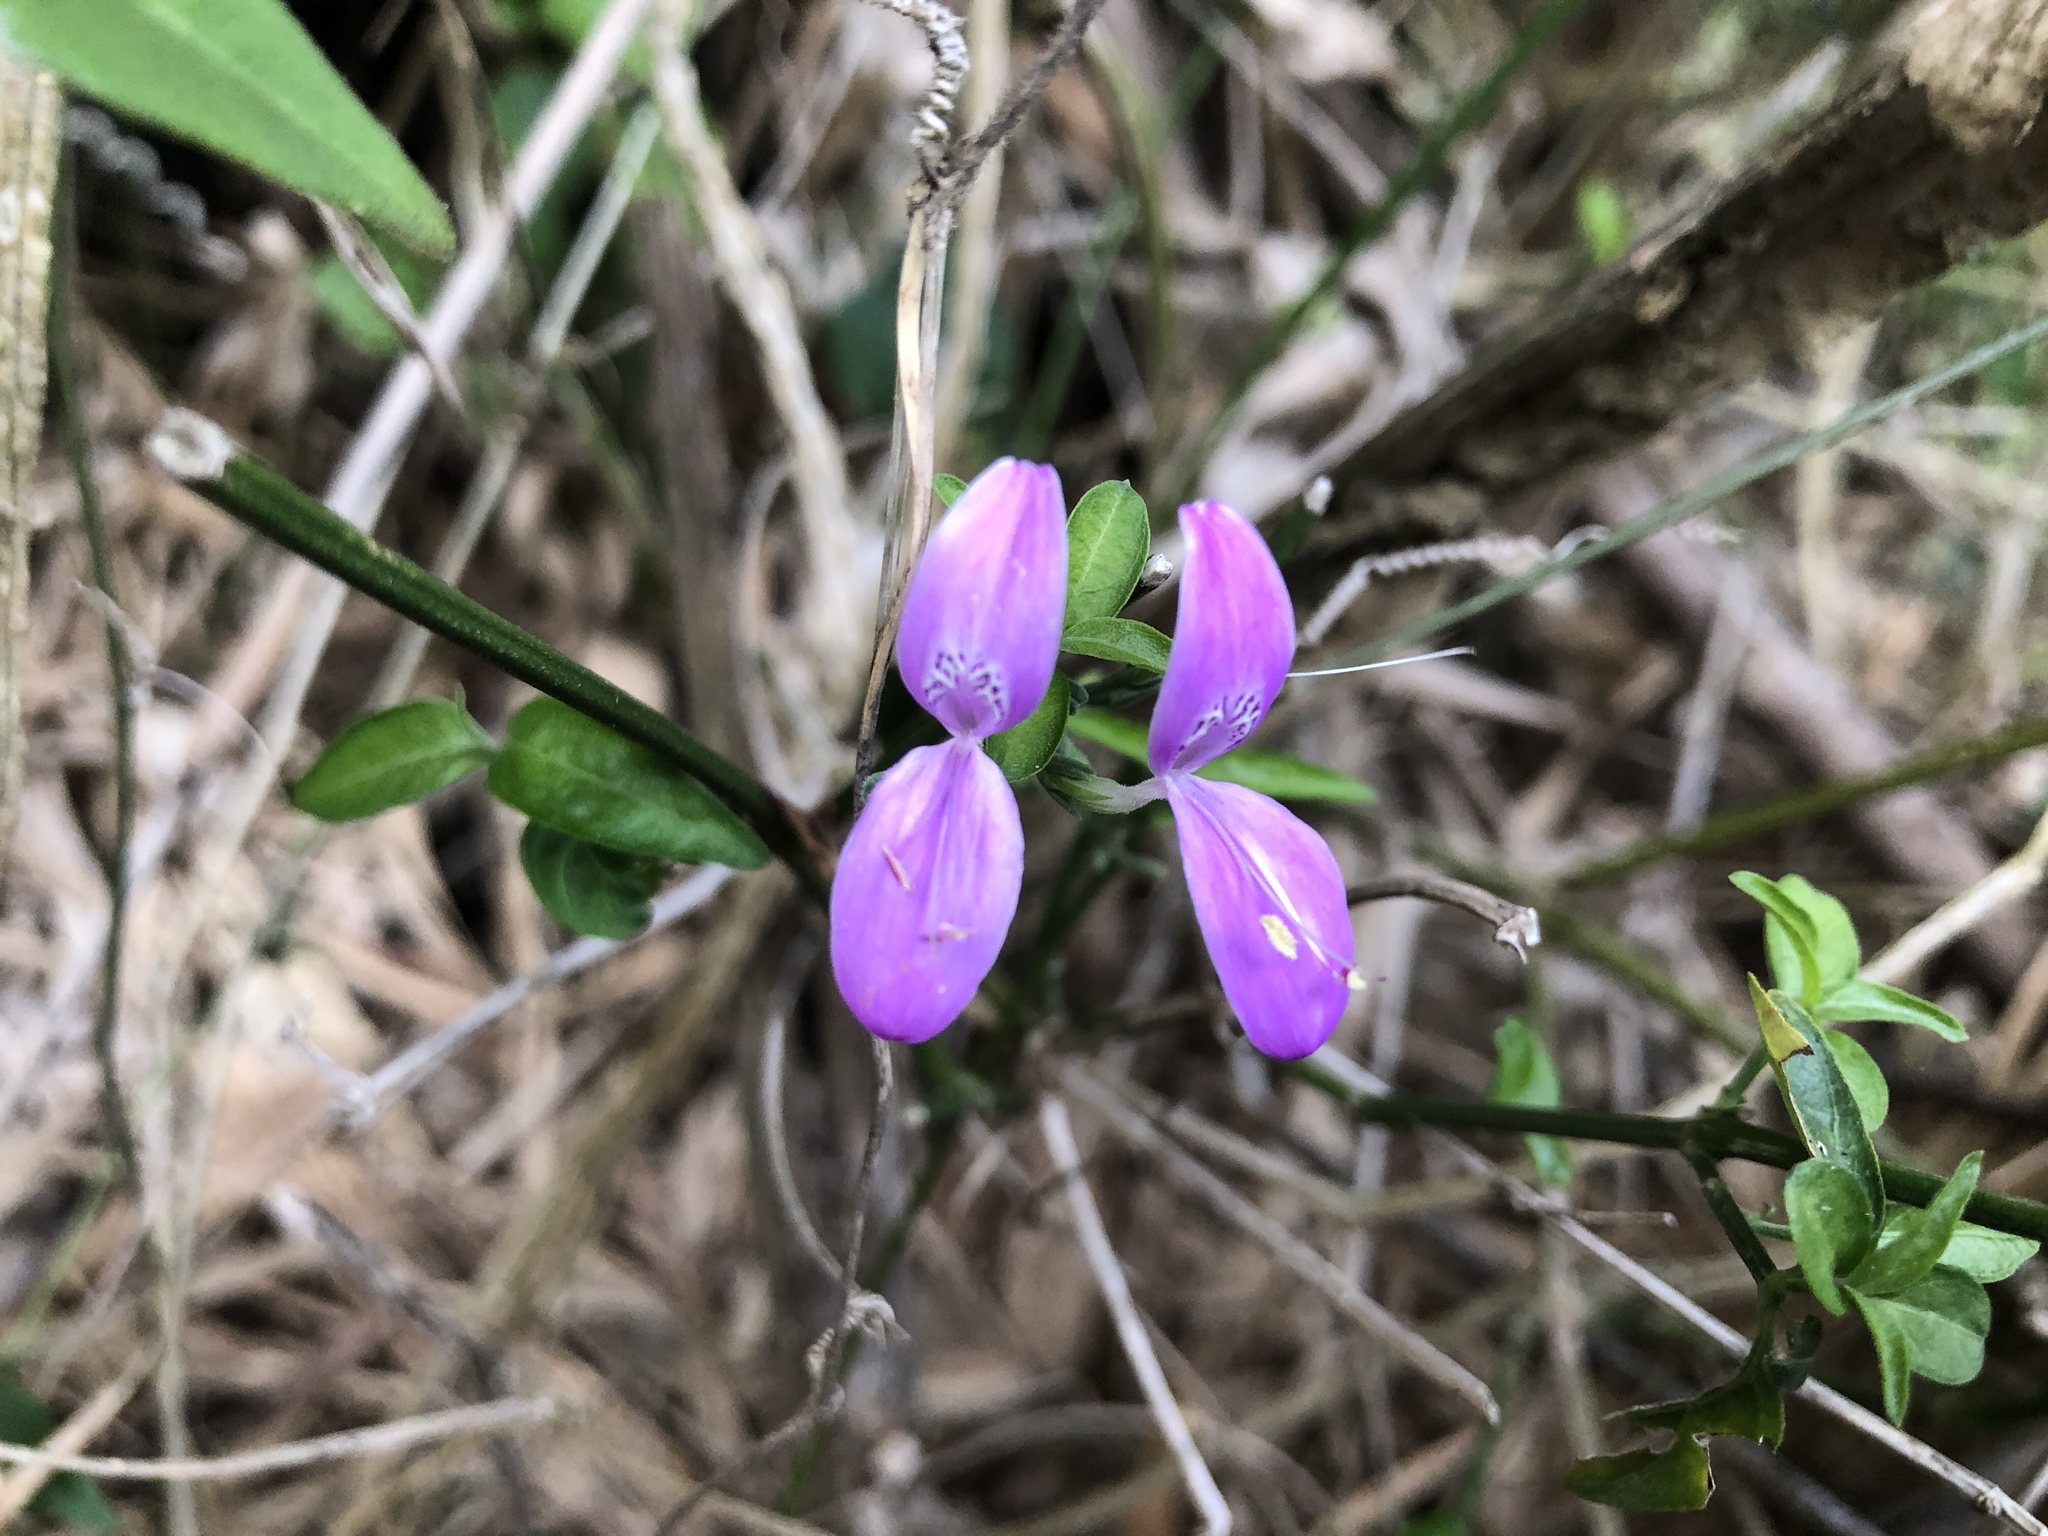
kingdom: Plantae
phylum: Tracheophyta
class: Magnoliopsida
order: Lamiales
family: Acanthaceae
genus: Hypoestes
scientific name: Hypoestes cumingiana
